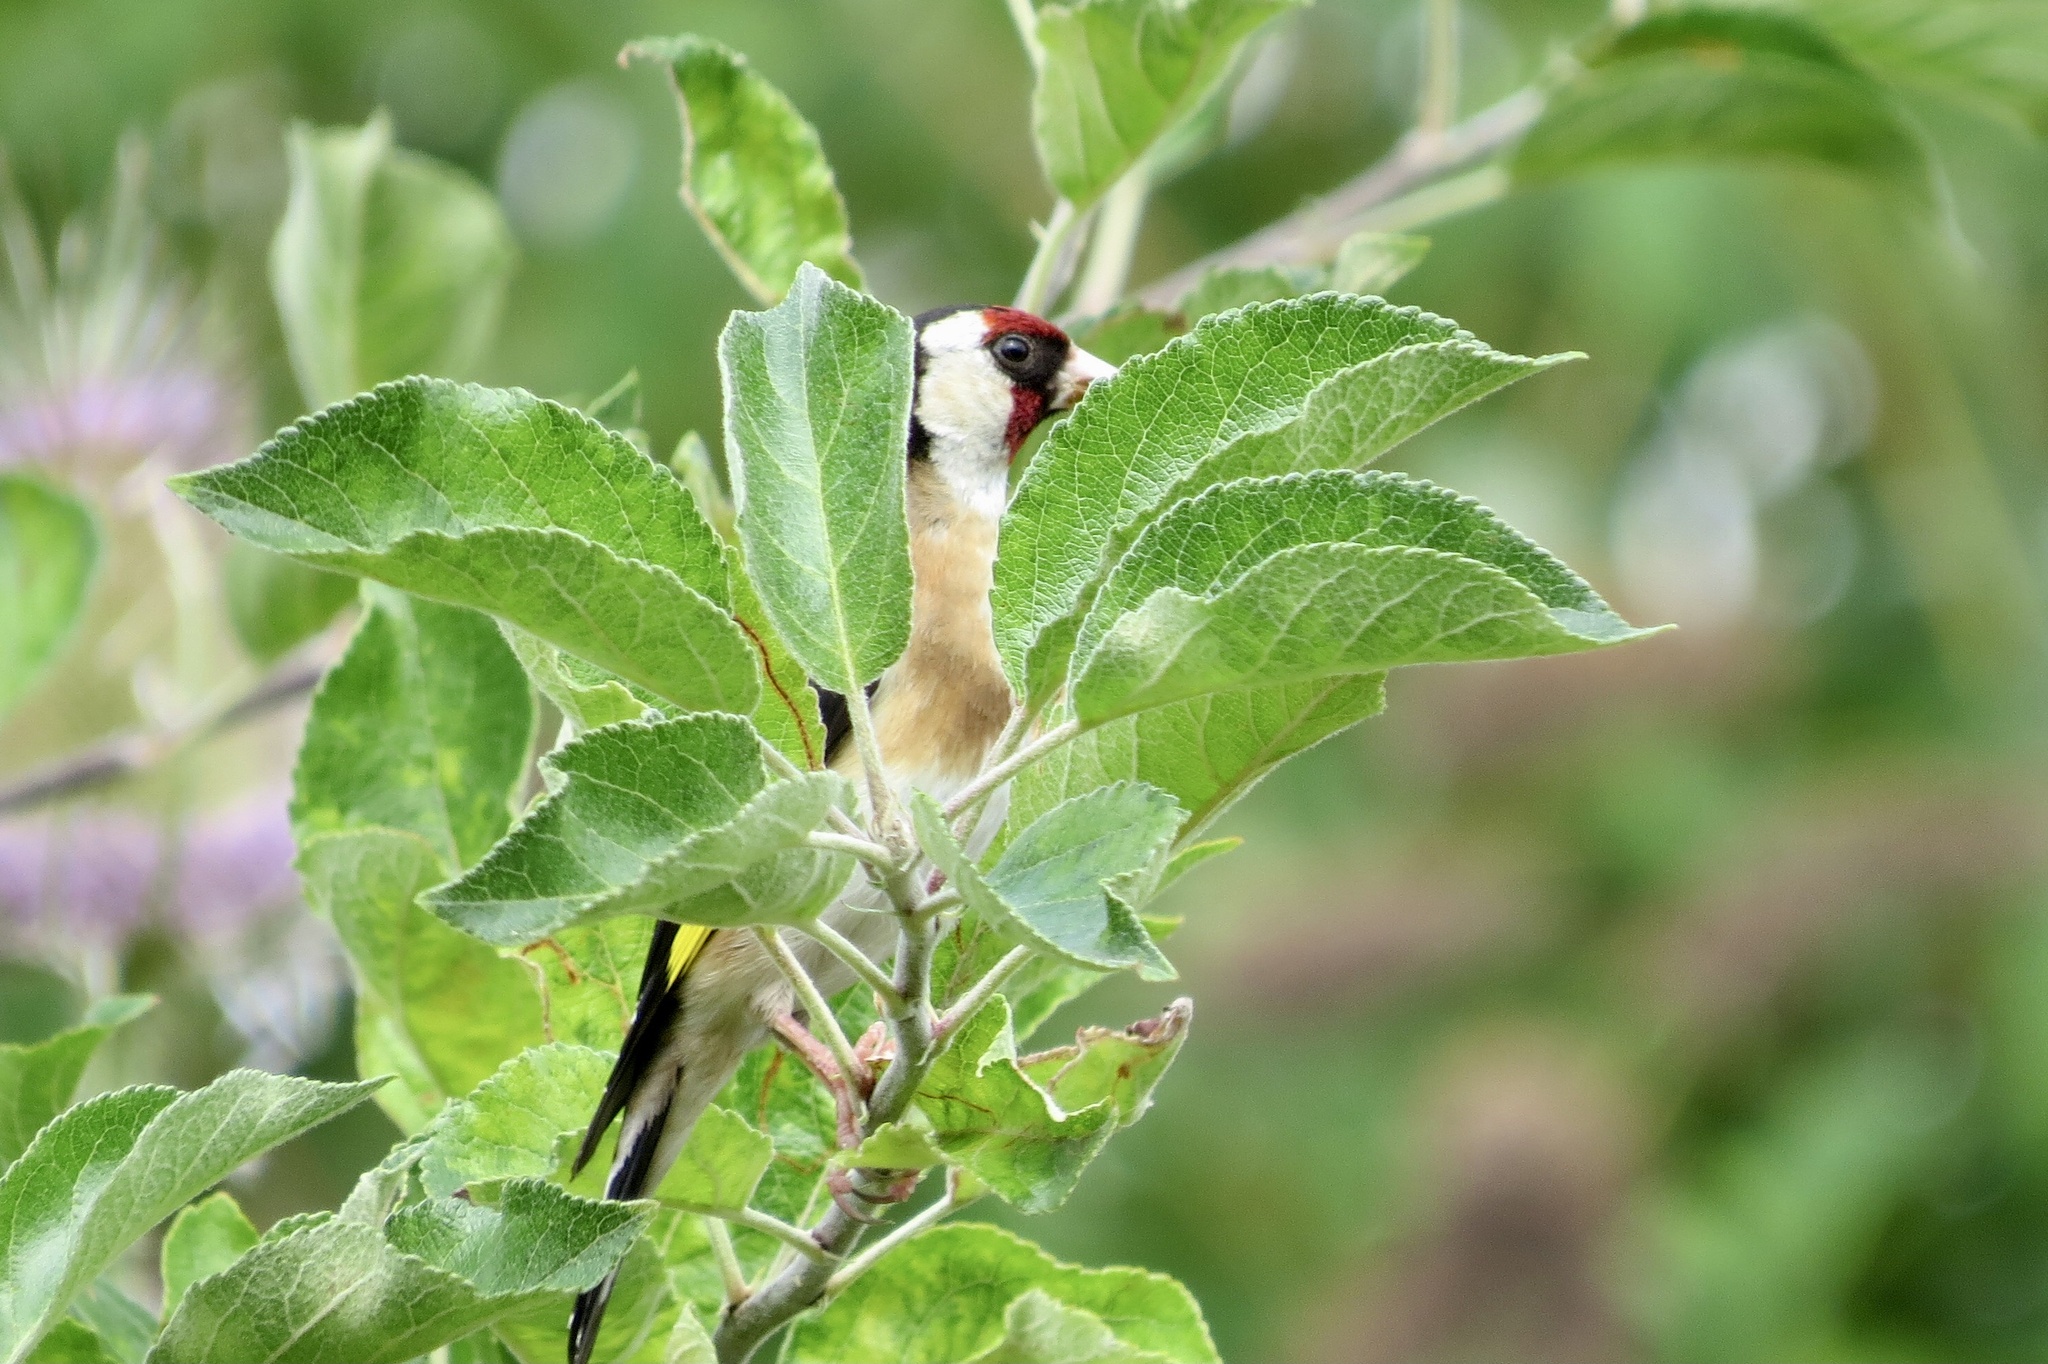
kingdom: Animalia
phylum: Chordata
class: Aves
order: Passeriformes
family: Fringillidae
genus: Carduelis
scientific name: Carduelis carduelis
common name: European goldfinch
